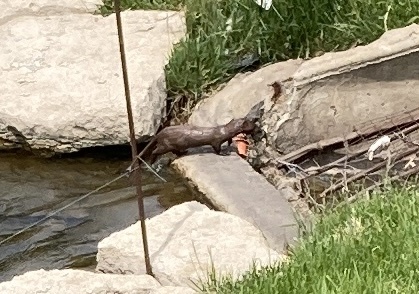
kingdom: Animalia
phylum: Chordata
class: Mammalia
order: Carnivora
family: Mustelidae
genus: Mustela
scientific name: Mustela
